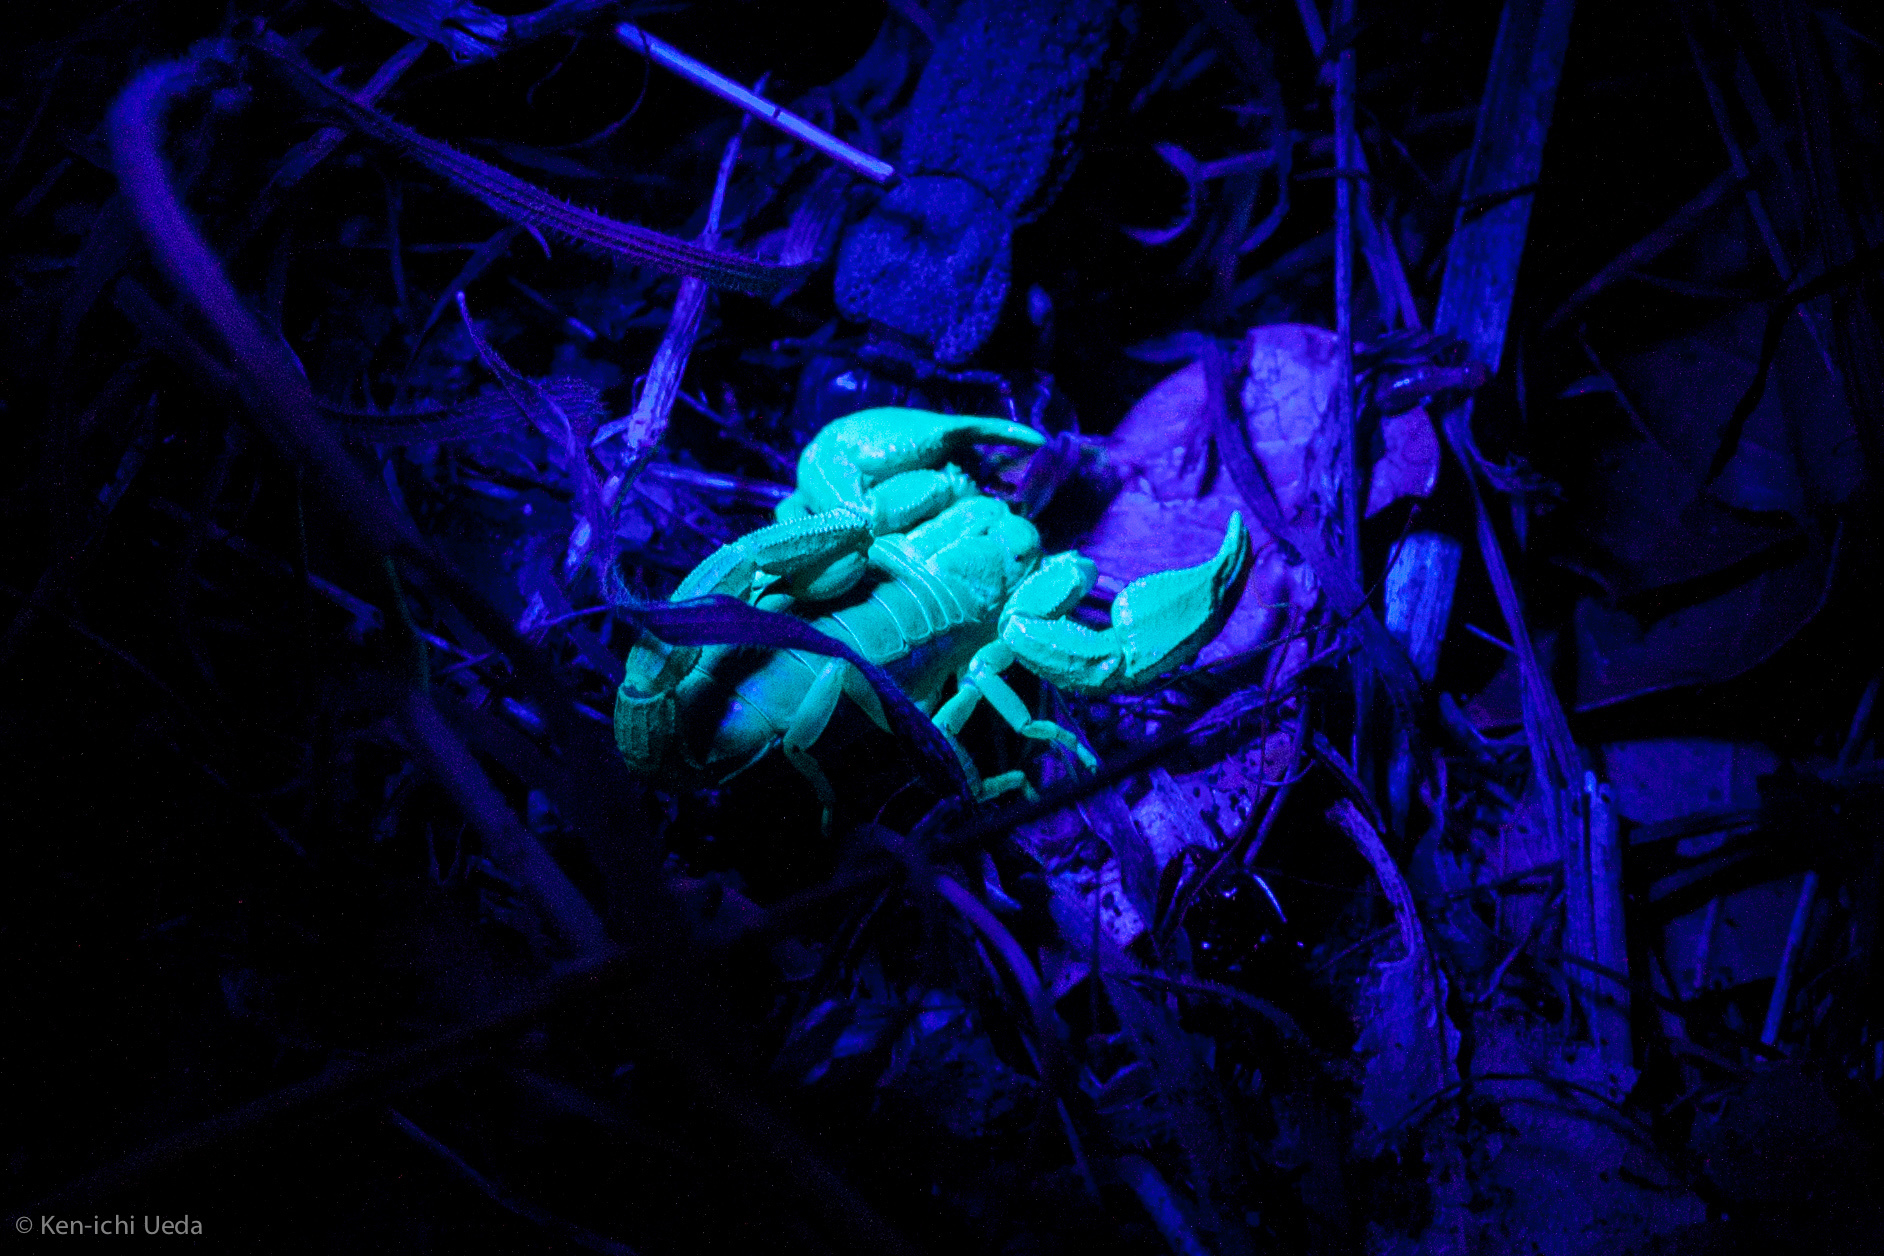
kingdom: Animalia
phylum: Arthropoda
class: Arachnida
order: Scorpiones
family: Chactidae
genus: Uroctonus
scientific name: Uroctonus mordax
